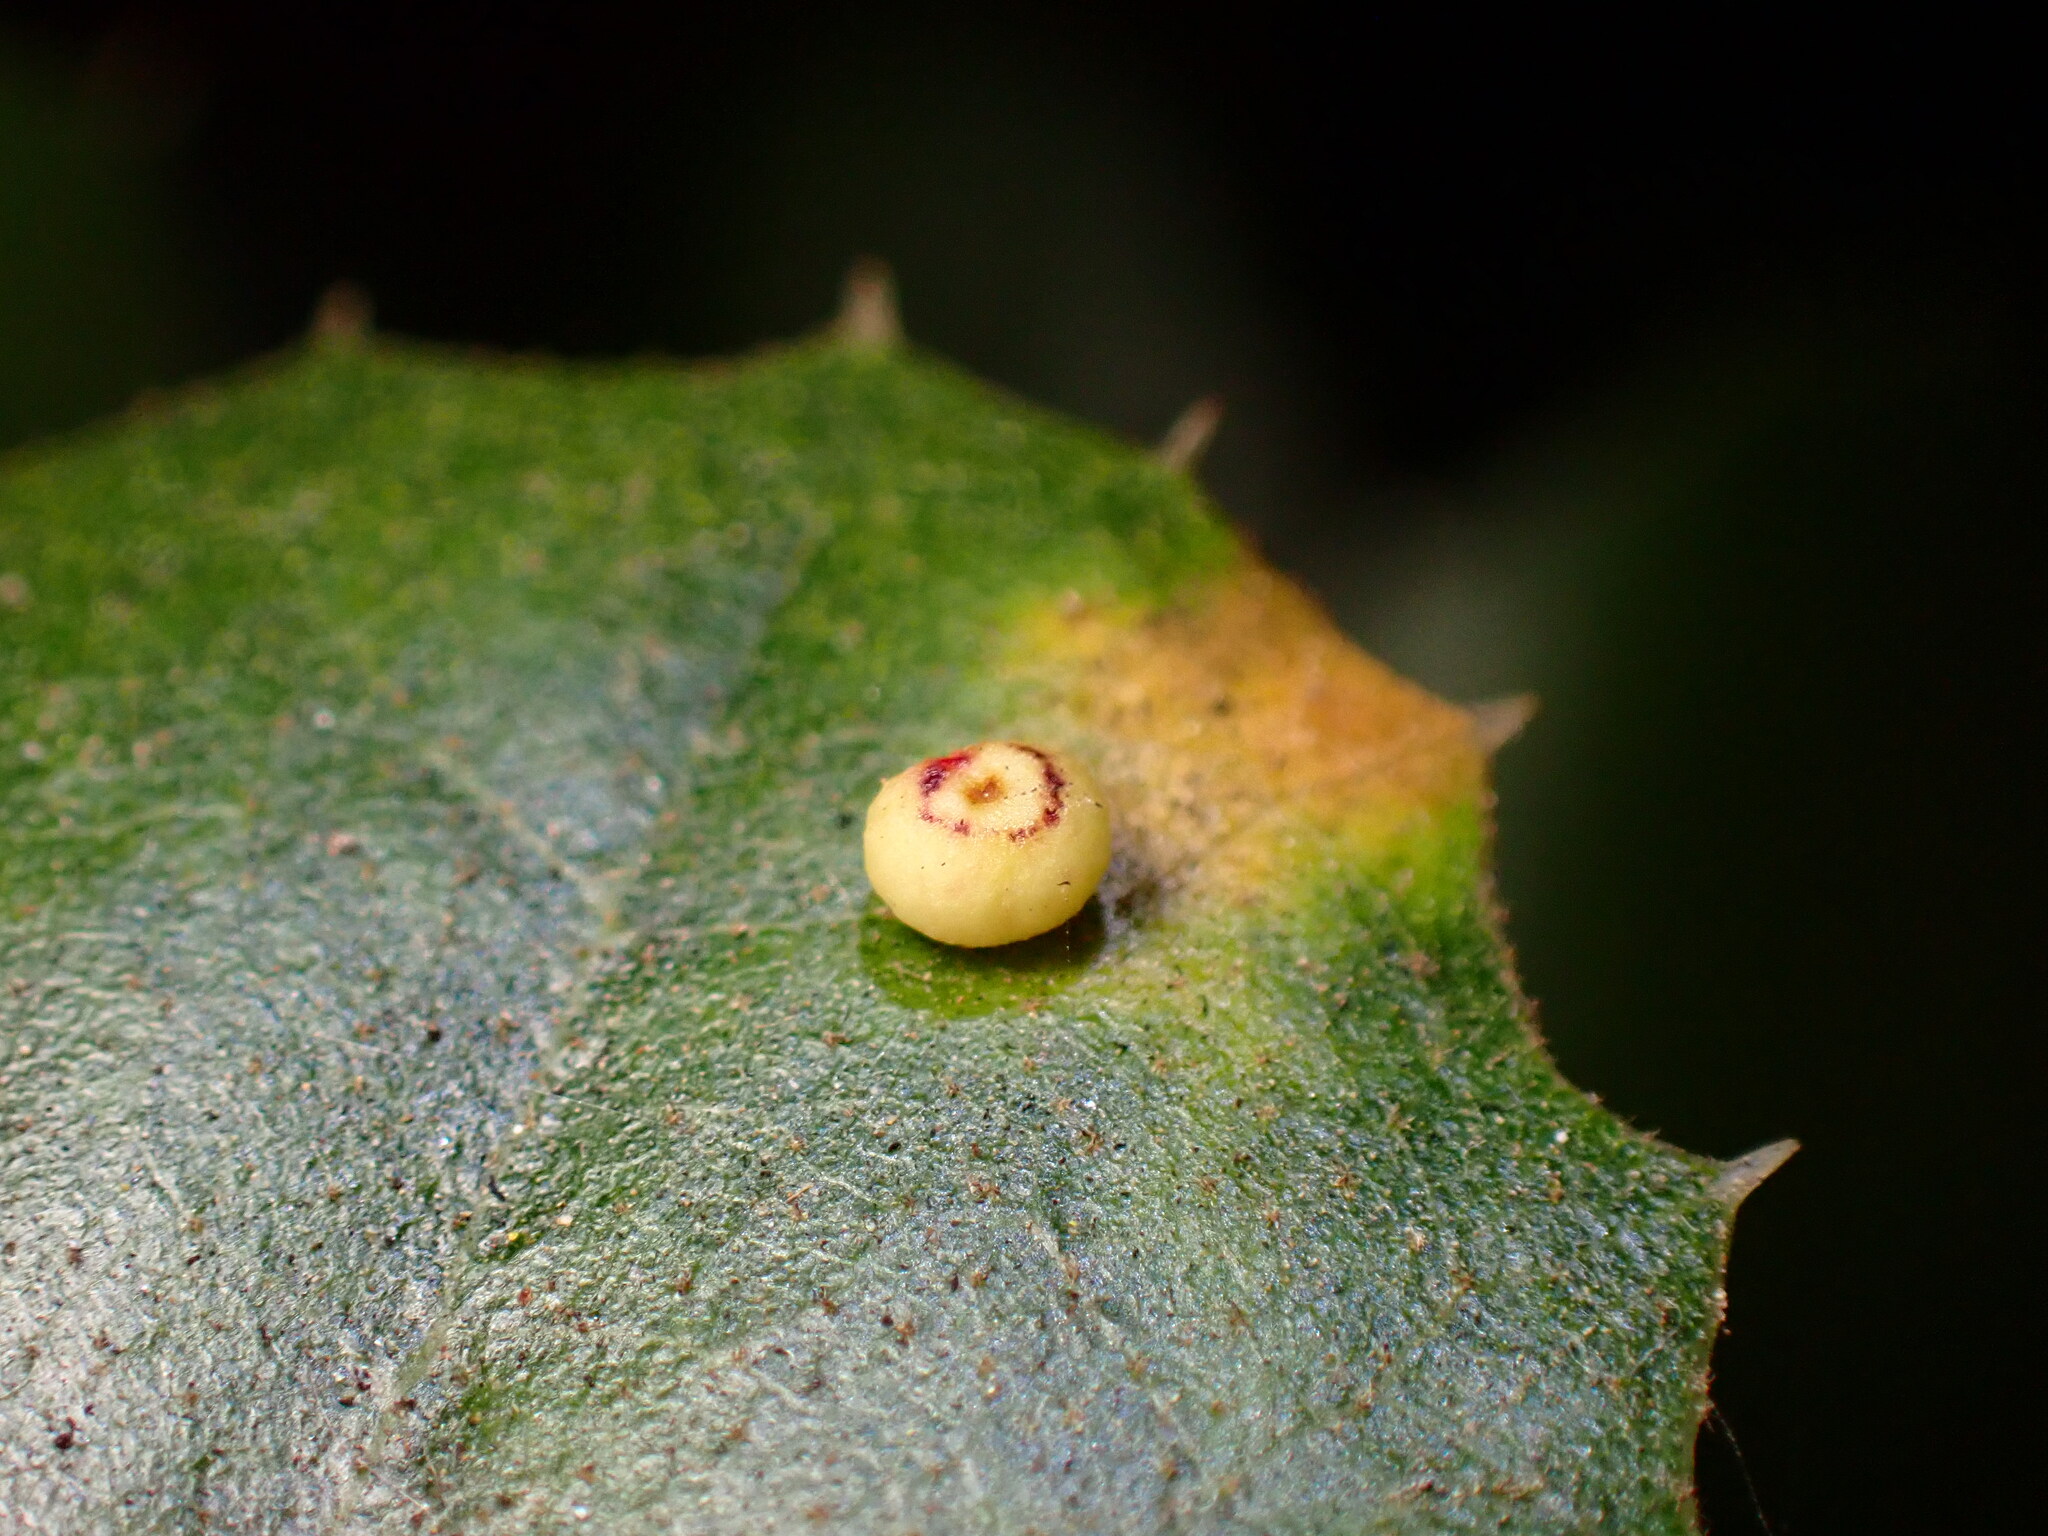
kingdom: Animalia
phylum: Arthropoda
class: Insecta
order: Hymenoptera
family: Cynipidae
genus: Dryocosmus
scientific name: Dryocosmus
